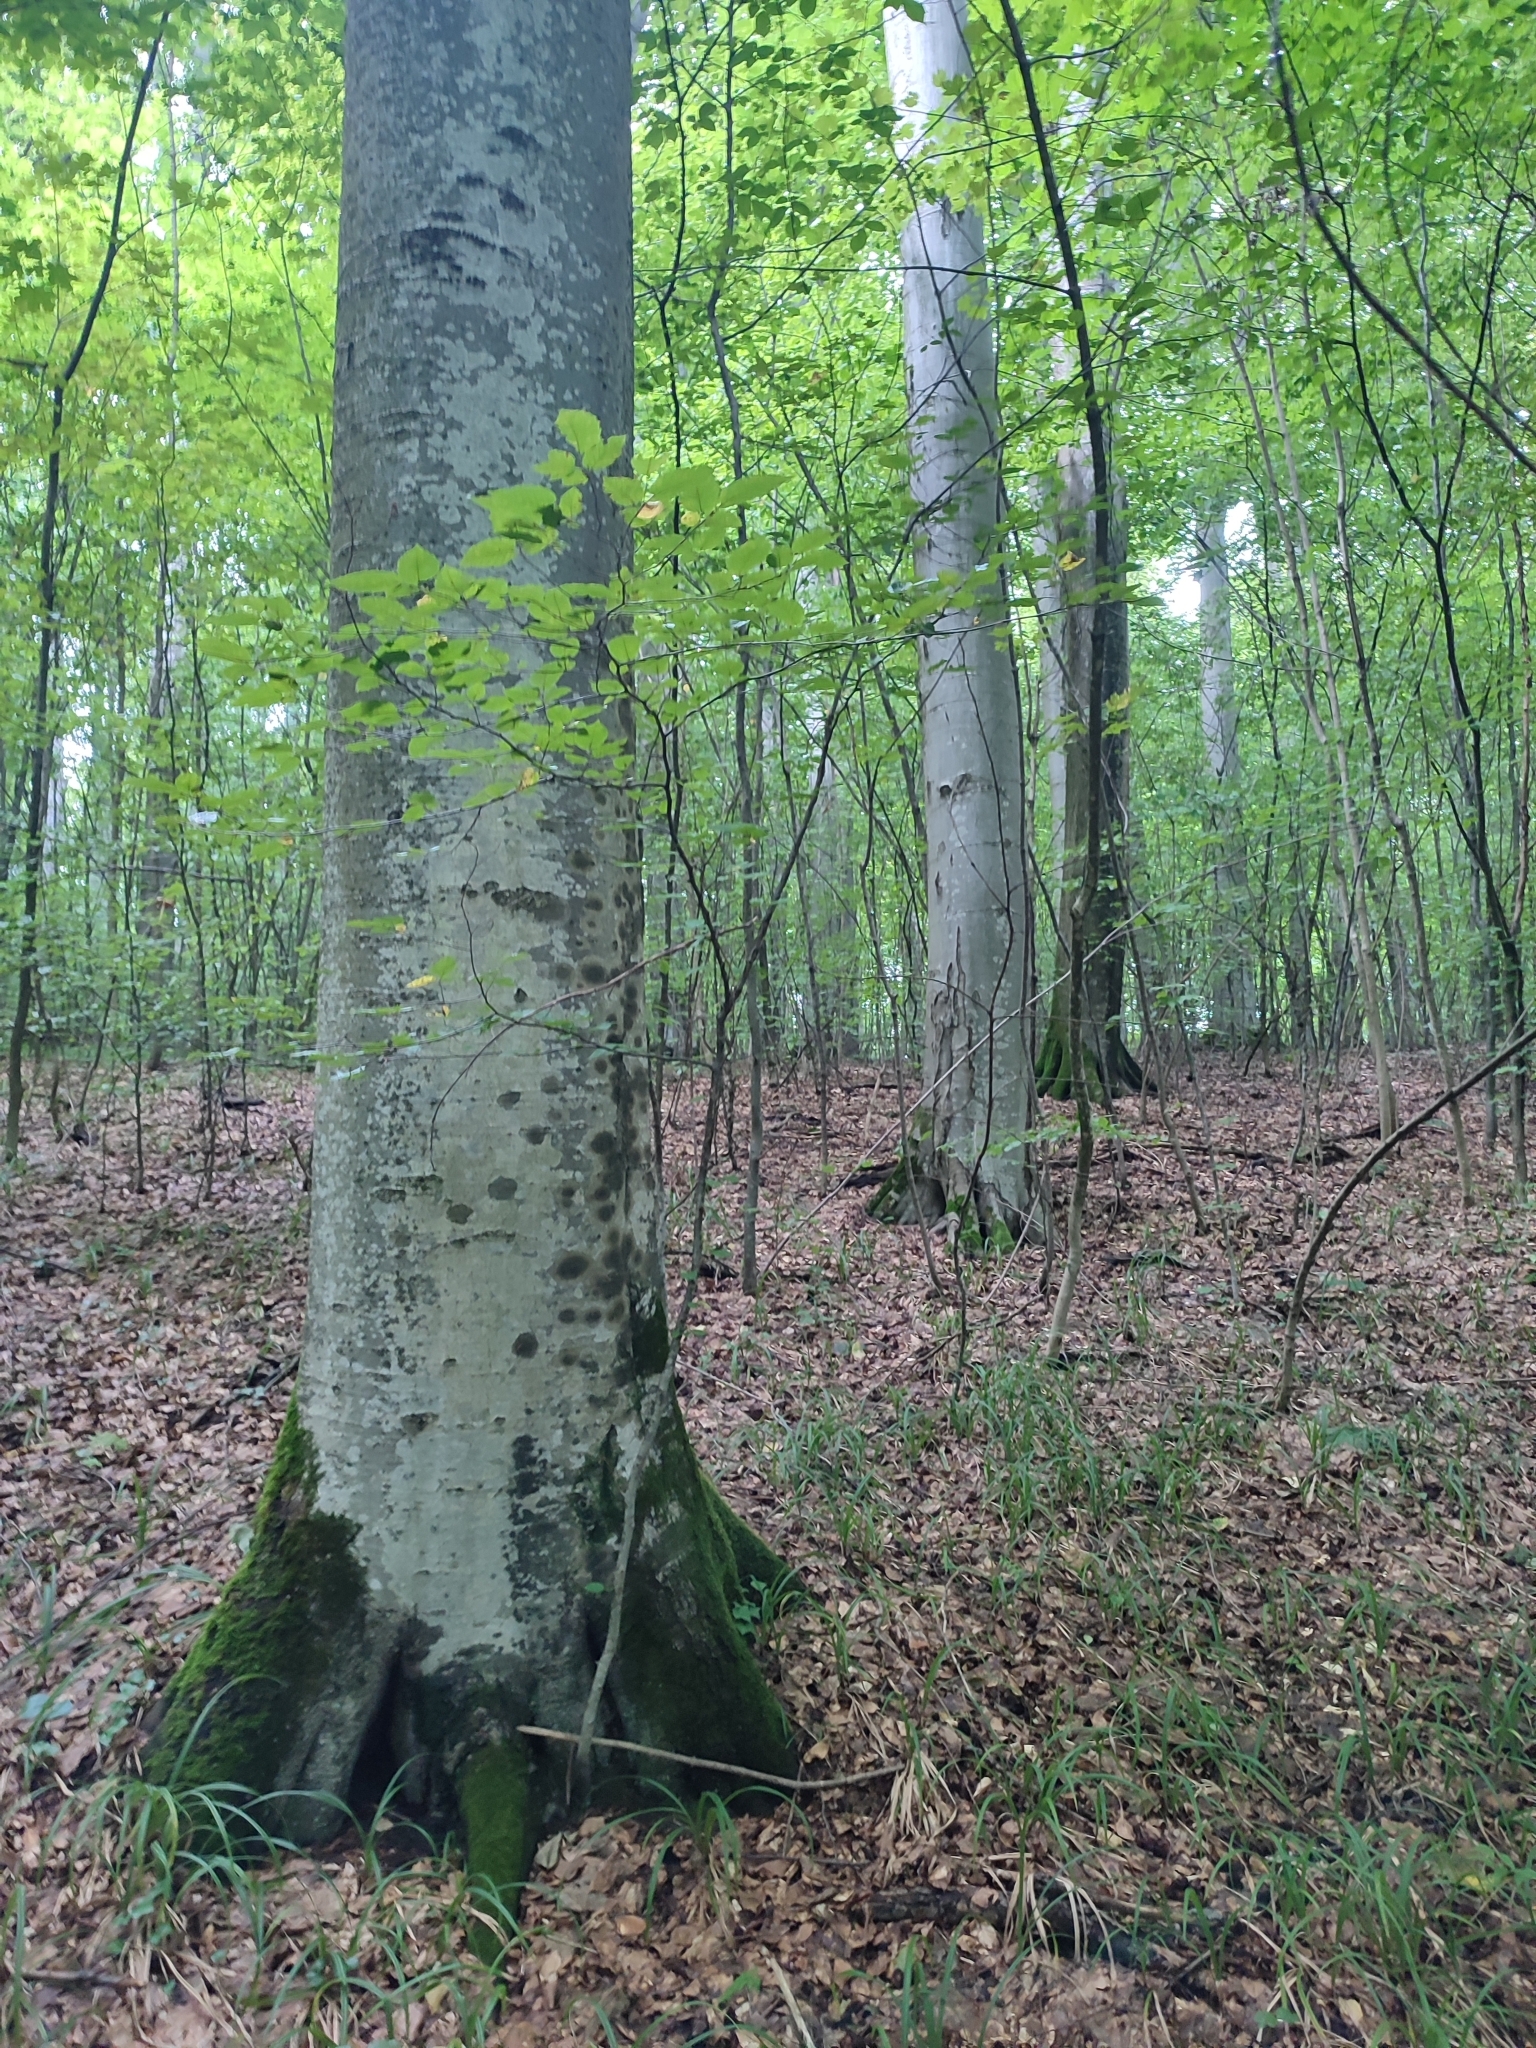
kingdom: Plantae
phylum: Tracheophyta
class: Magnoliopsida
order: Fagales
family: Fagaceae
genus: Fagus
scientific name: Fagus sylvatica
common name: Beech
